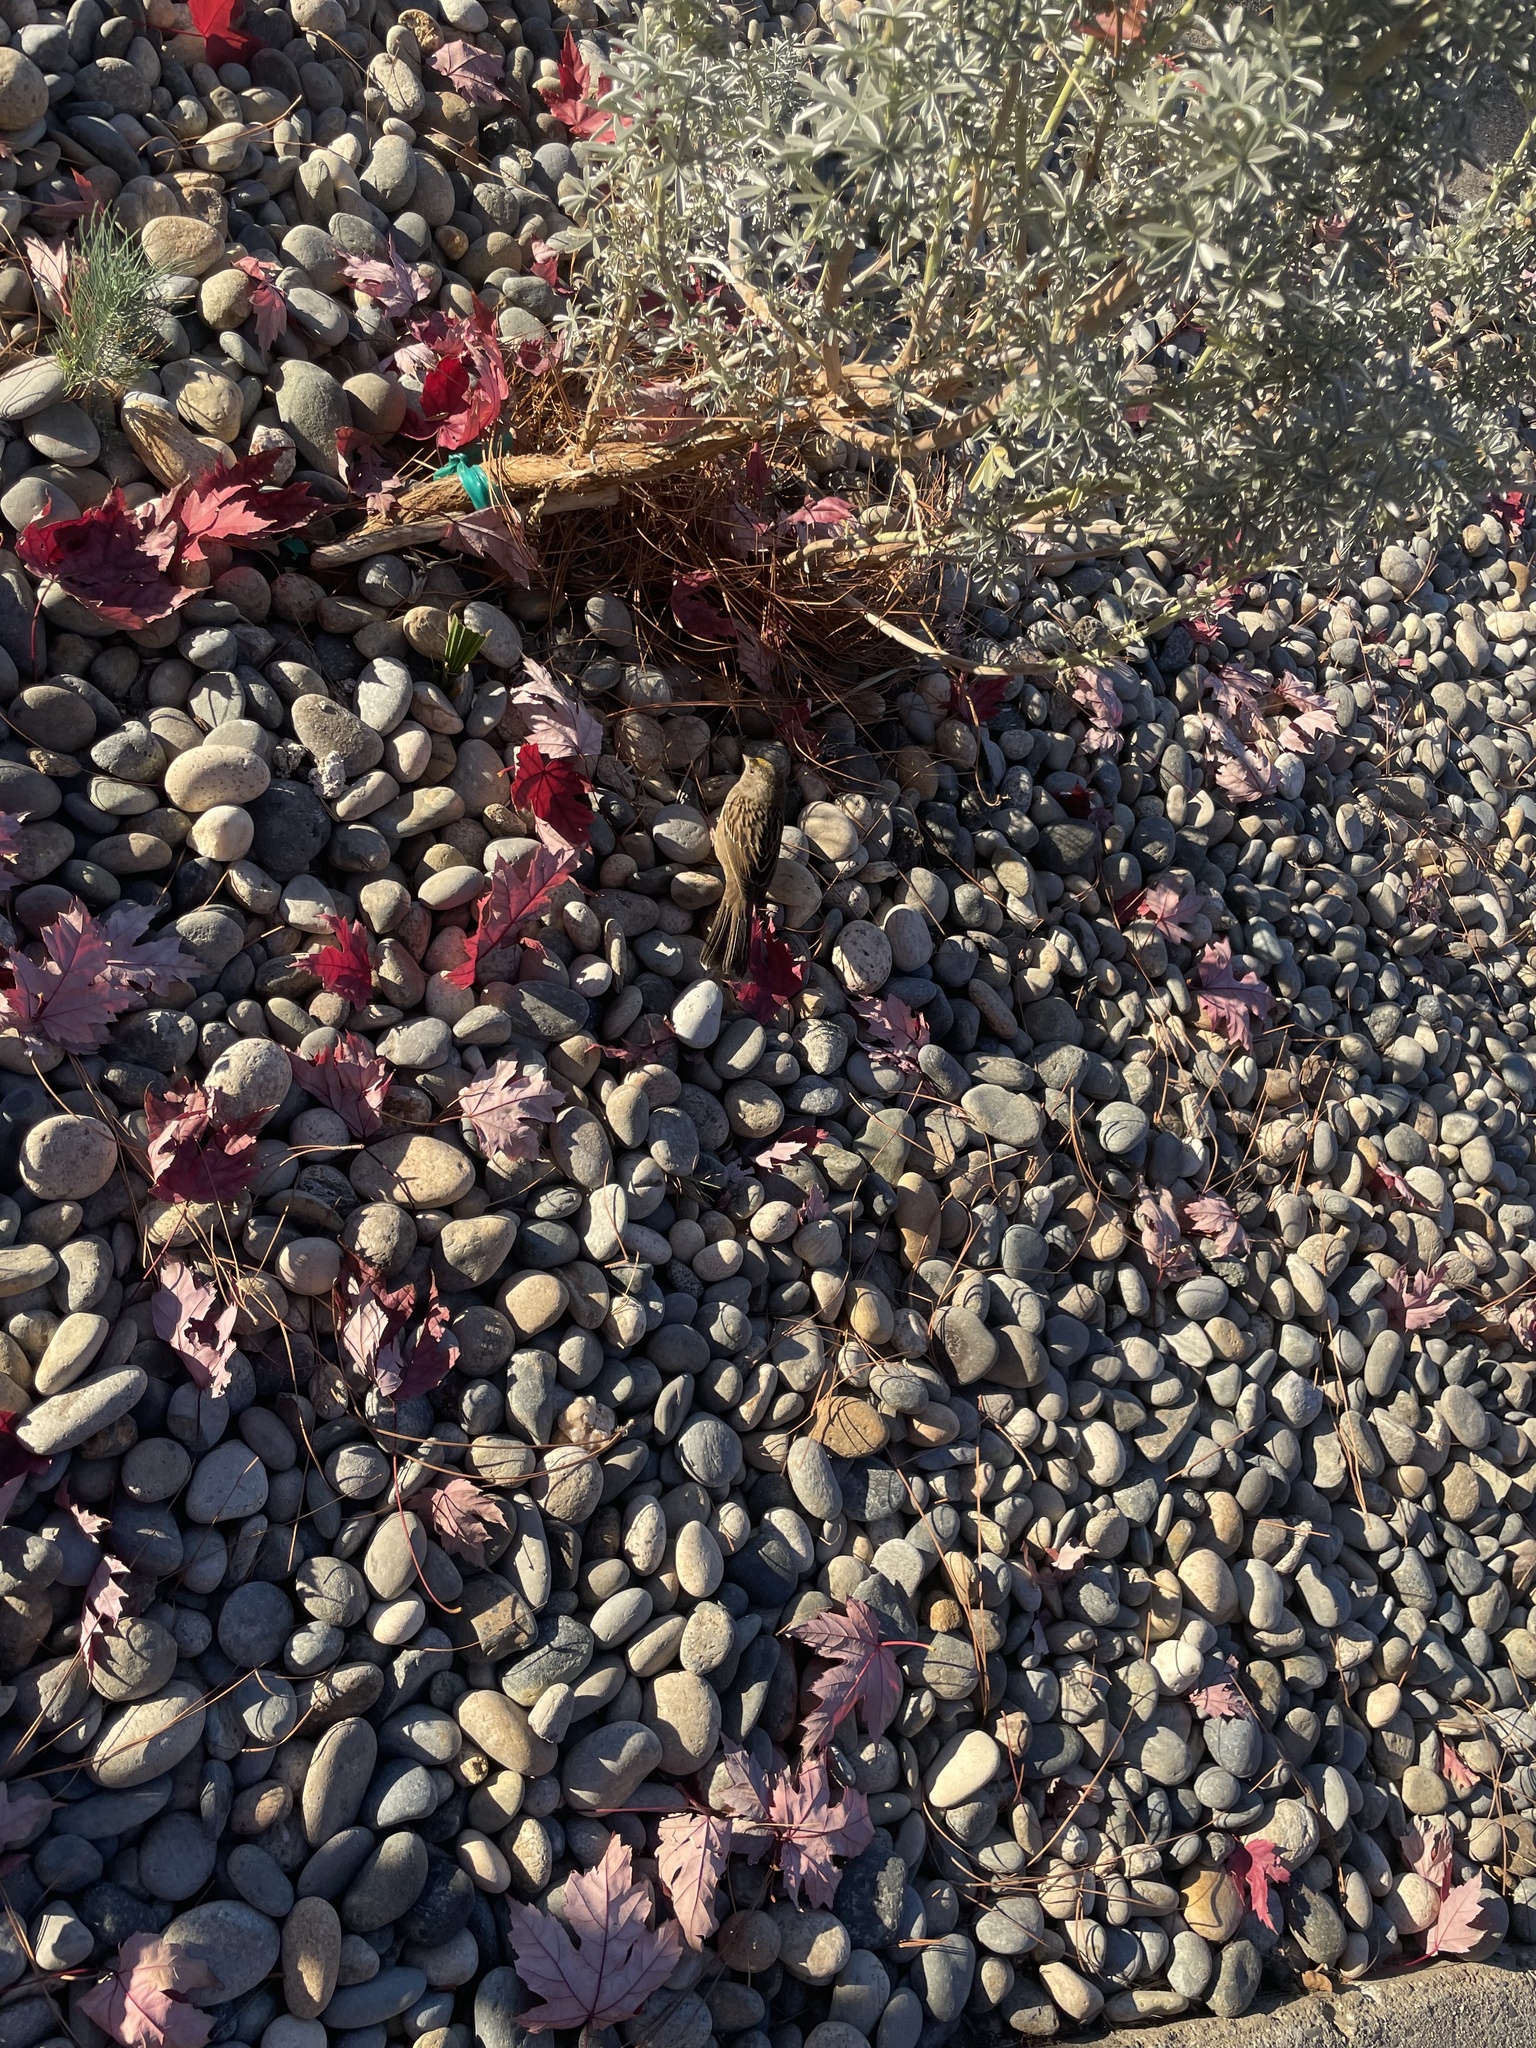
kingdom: Animalia
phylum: Chordata
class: Aves
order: Passeriformes
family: Passerellidae
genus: Zonotrichia
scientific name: Zonotrichia atricapilla
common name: Golden-crowned sparrow
